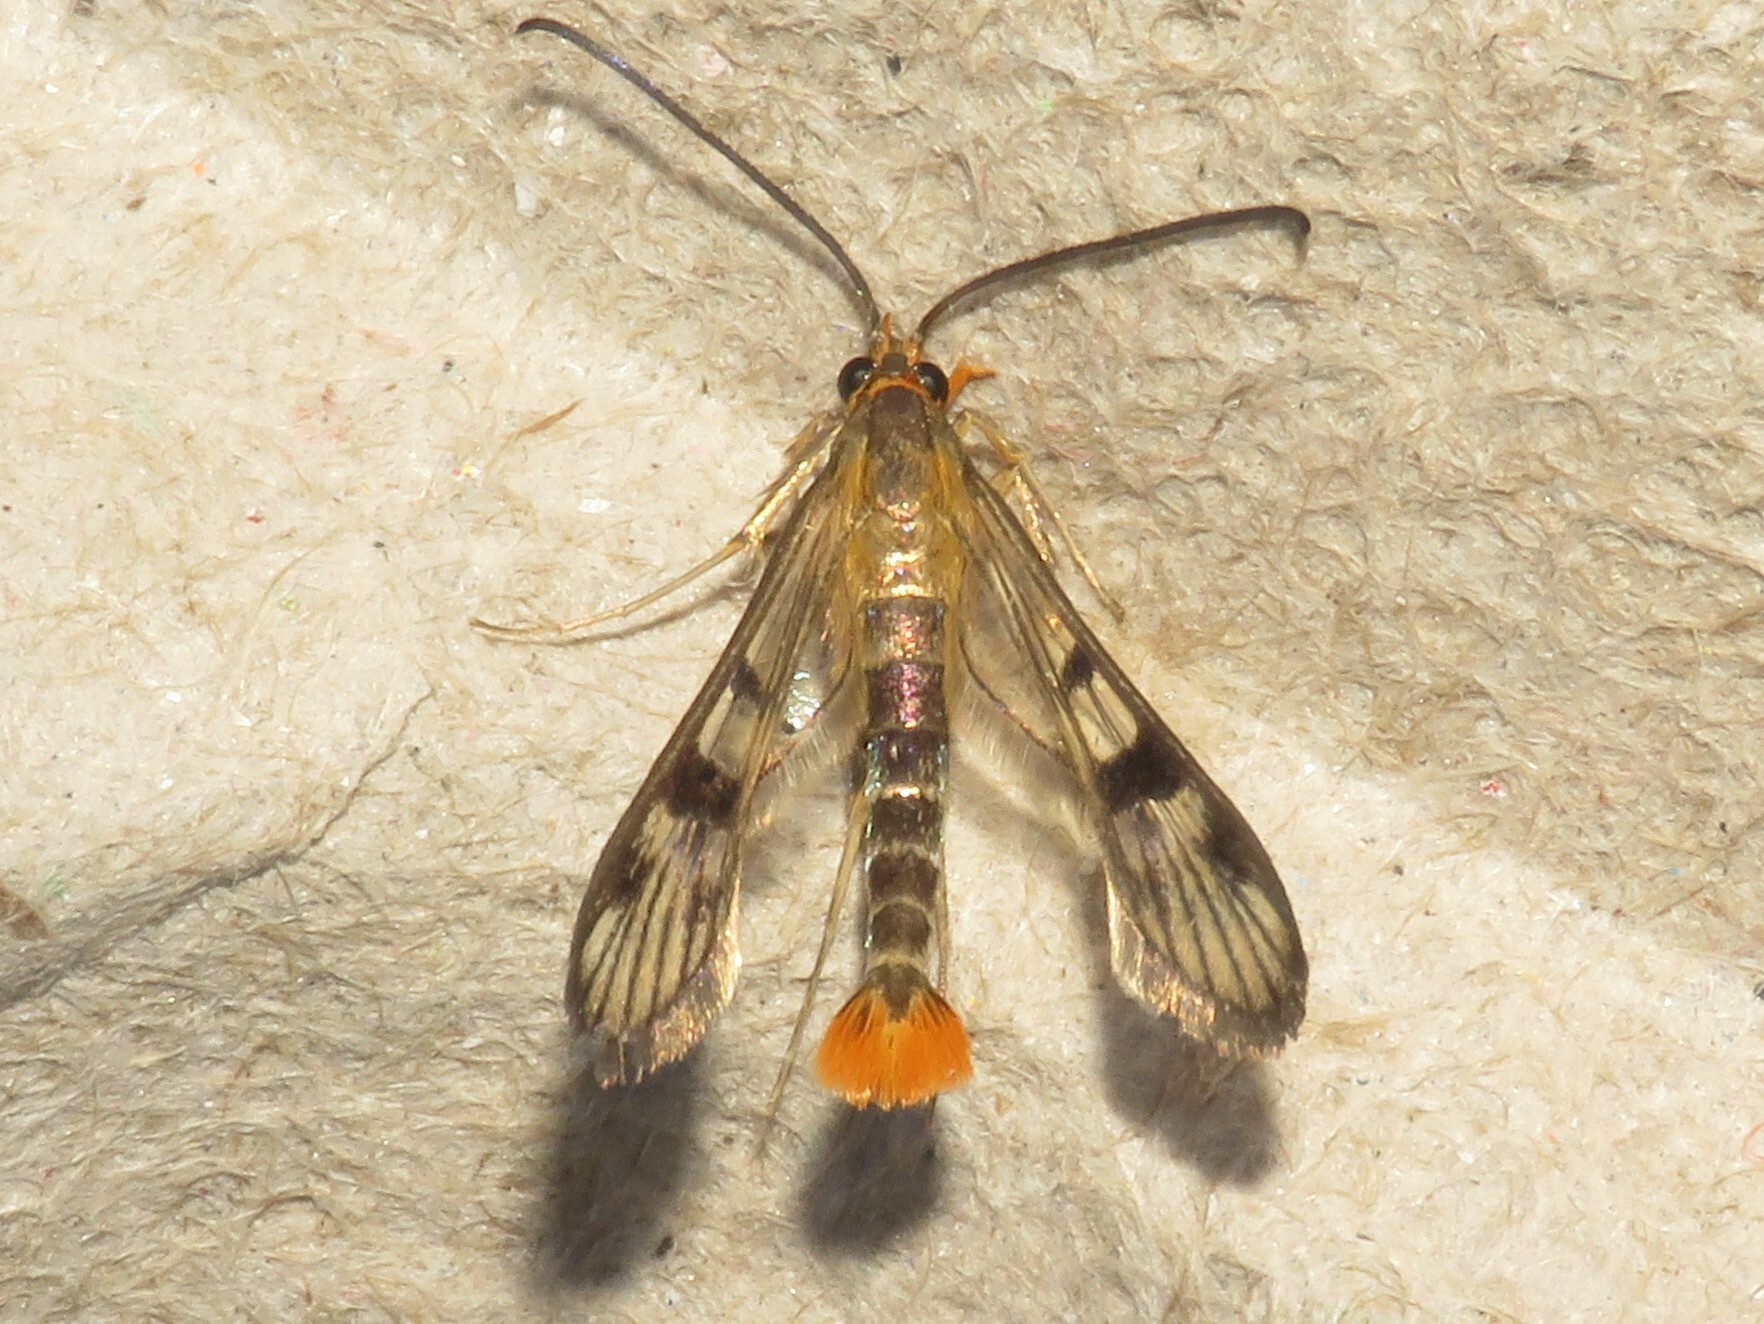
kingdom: Animalia
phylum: Arthropoda
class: Insecta
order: Lepidoptera
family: Sesiidae
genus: Synanthedon
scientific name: Synanthedon acerni
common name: Maple callus borer moth
